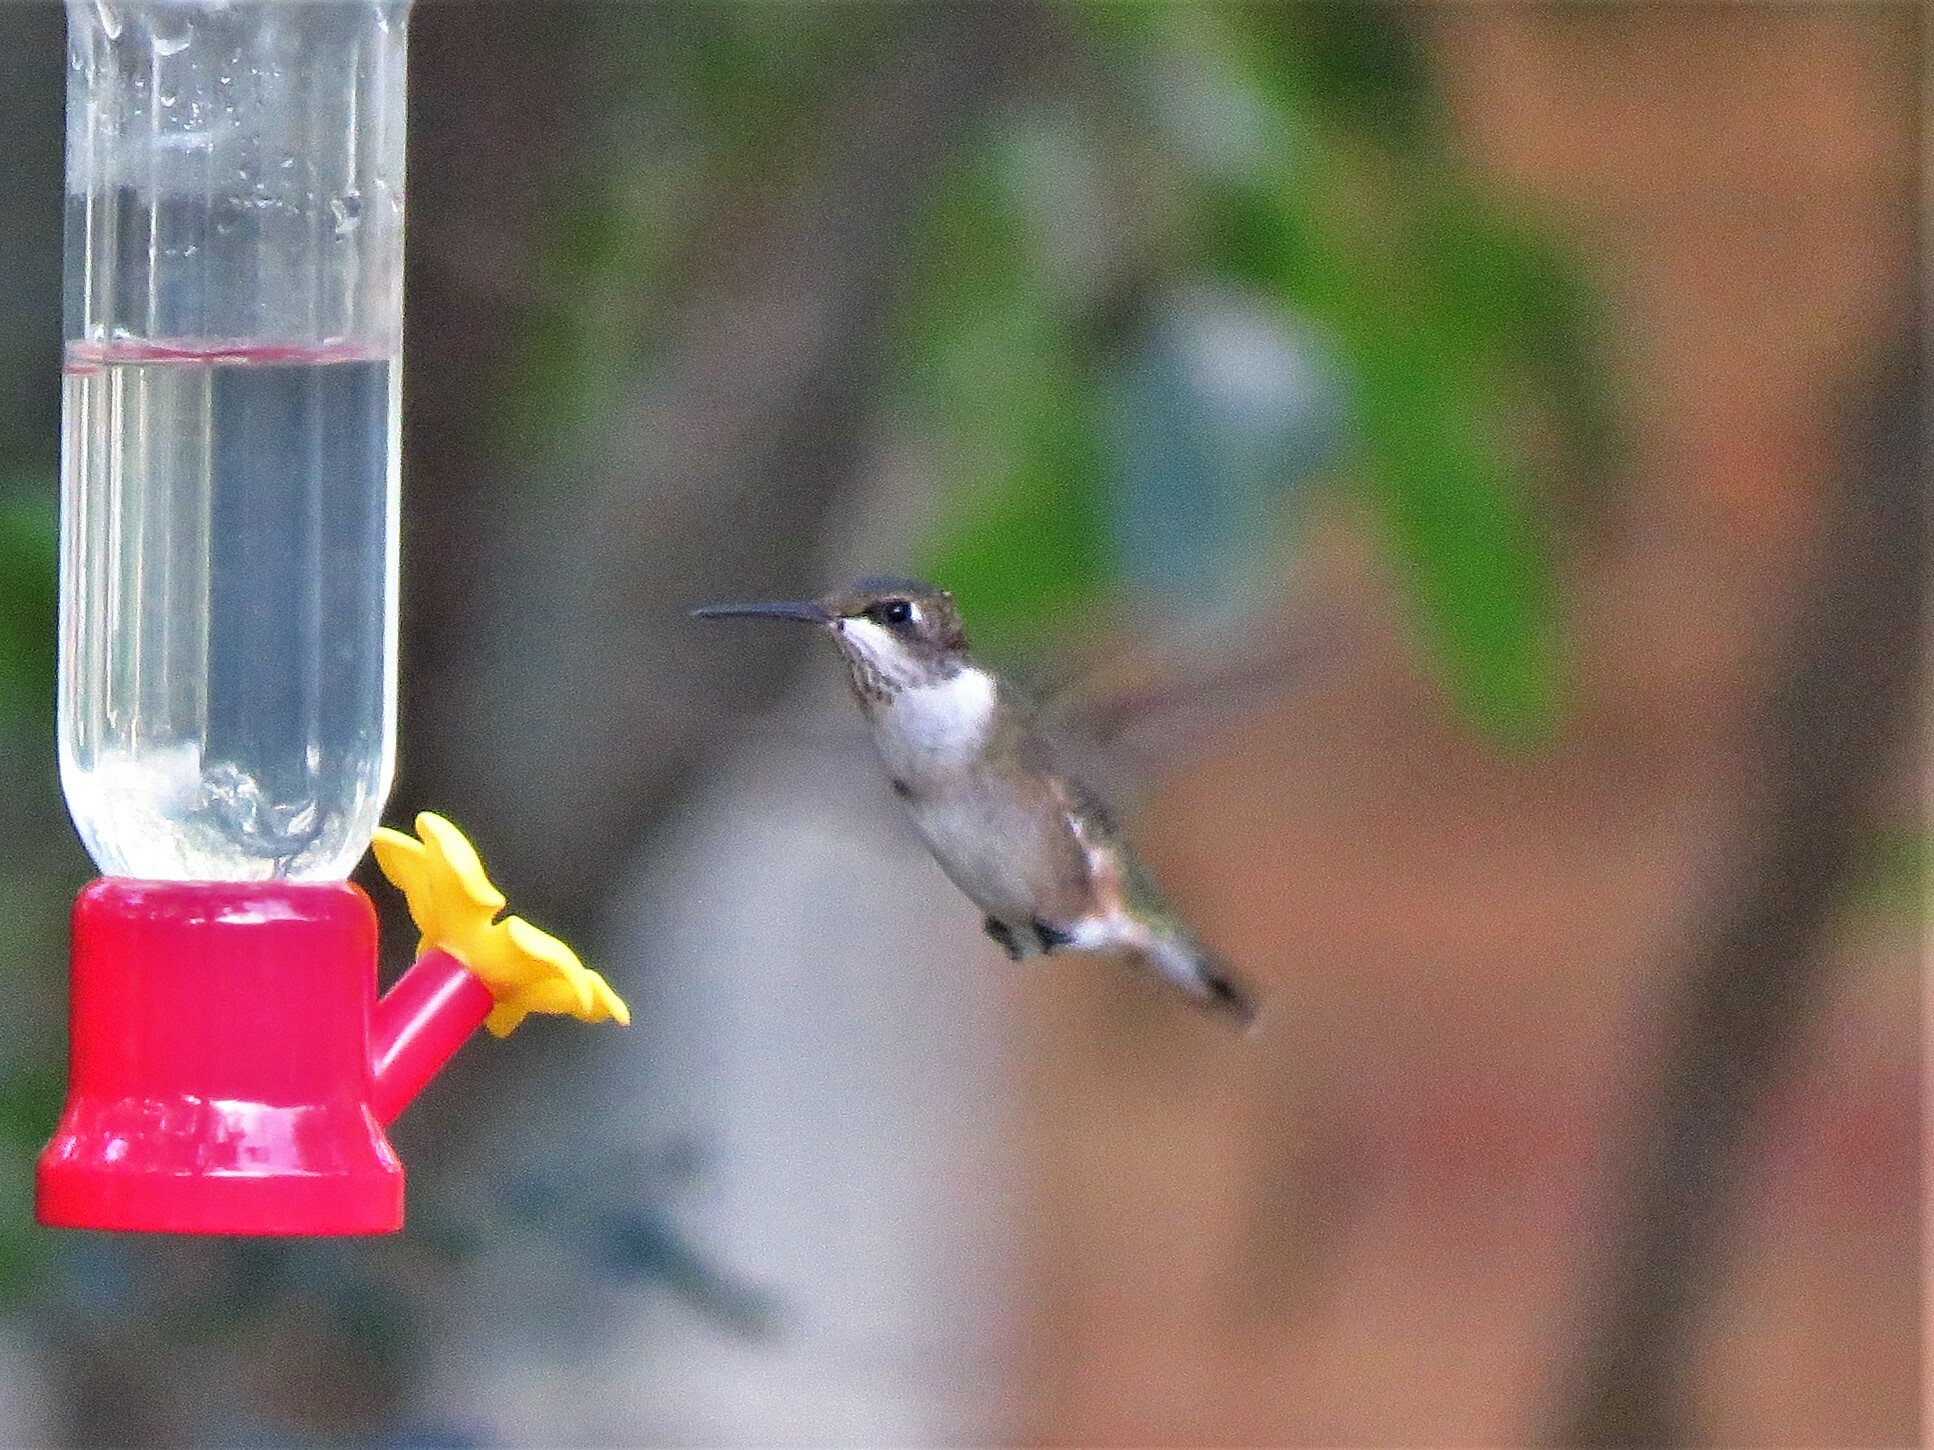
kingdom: Animalia
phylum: Chordata
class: Aves
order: Apodiformes
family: Trochilidae
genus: Archilochus
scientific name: Archilochus colubris
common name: Ruby-throated hummingbird
